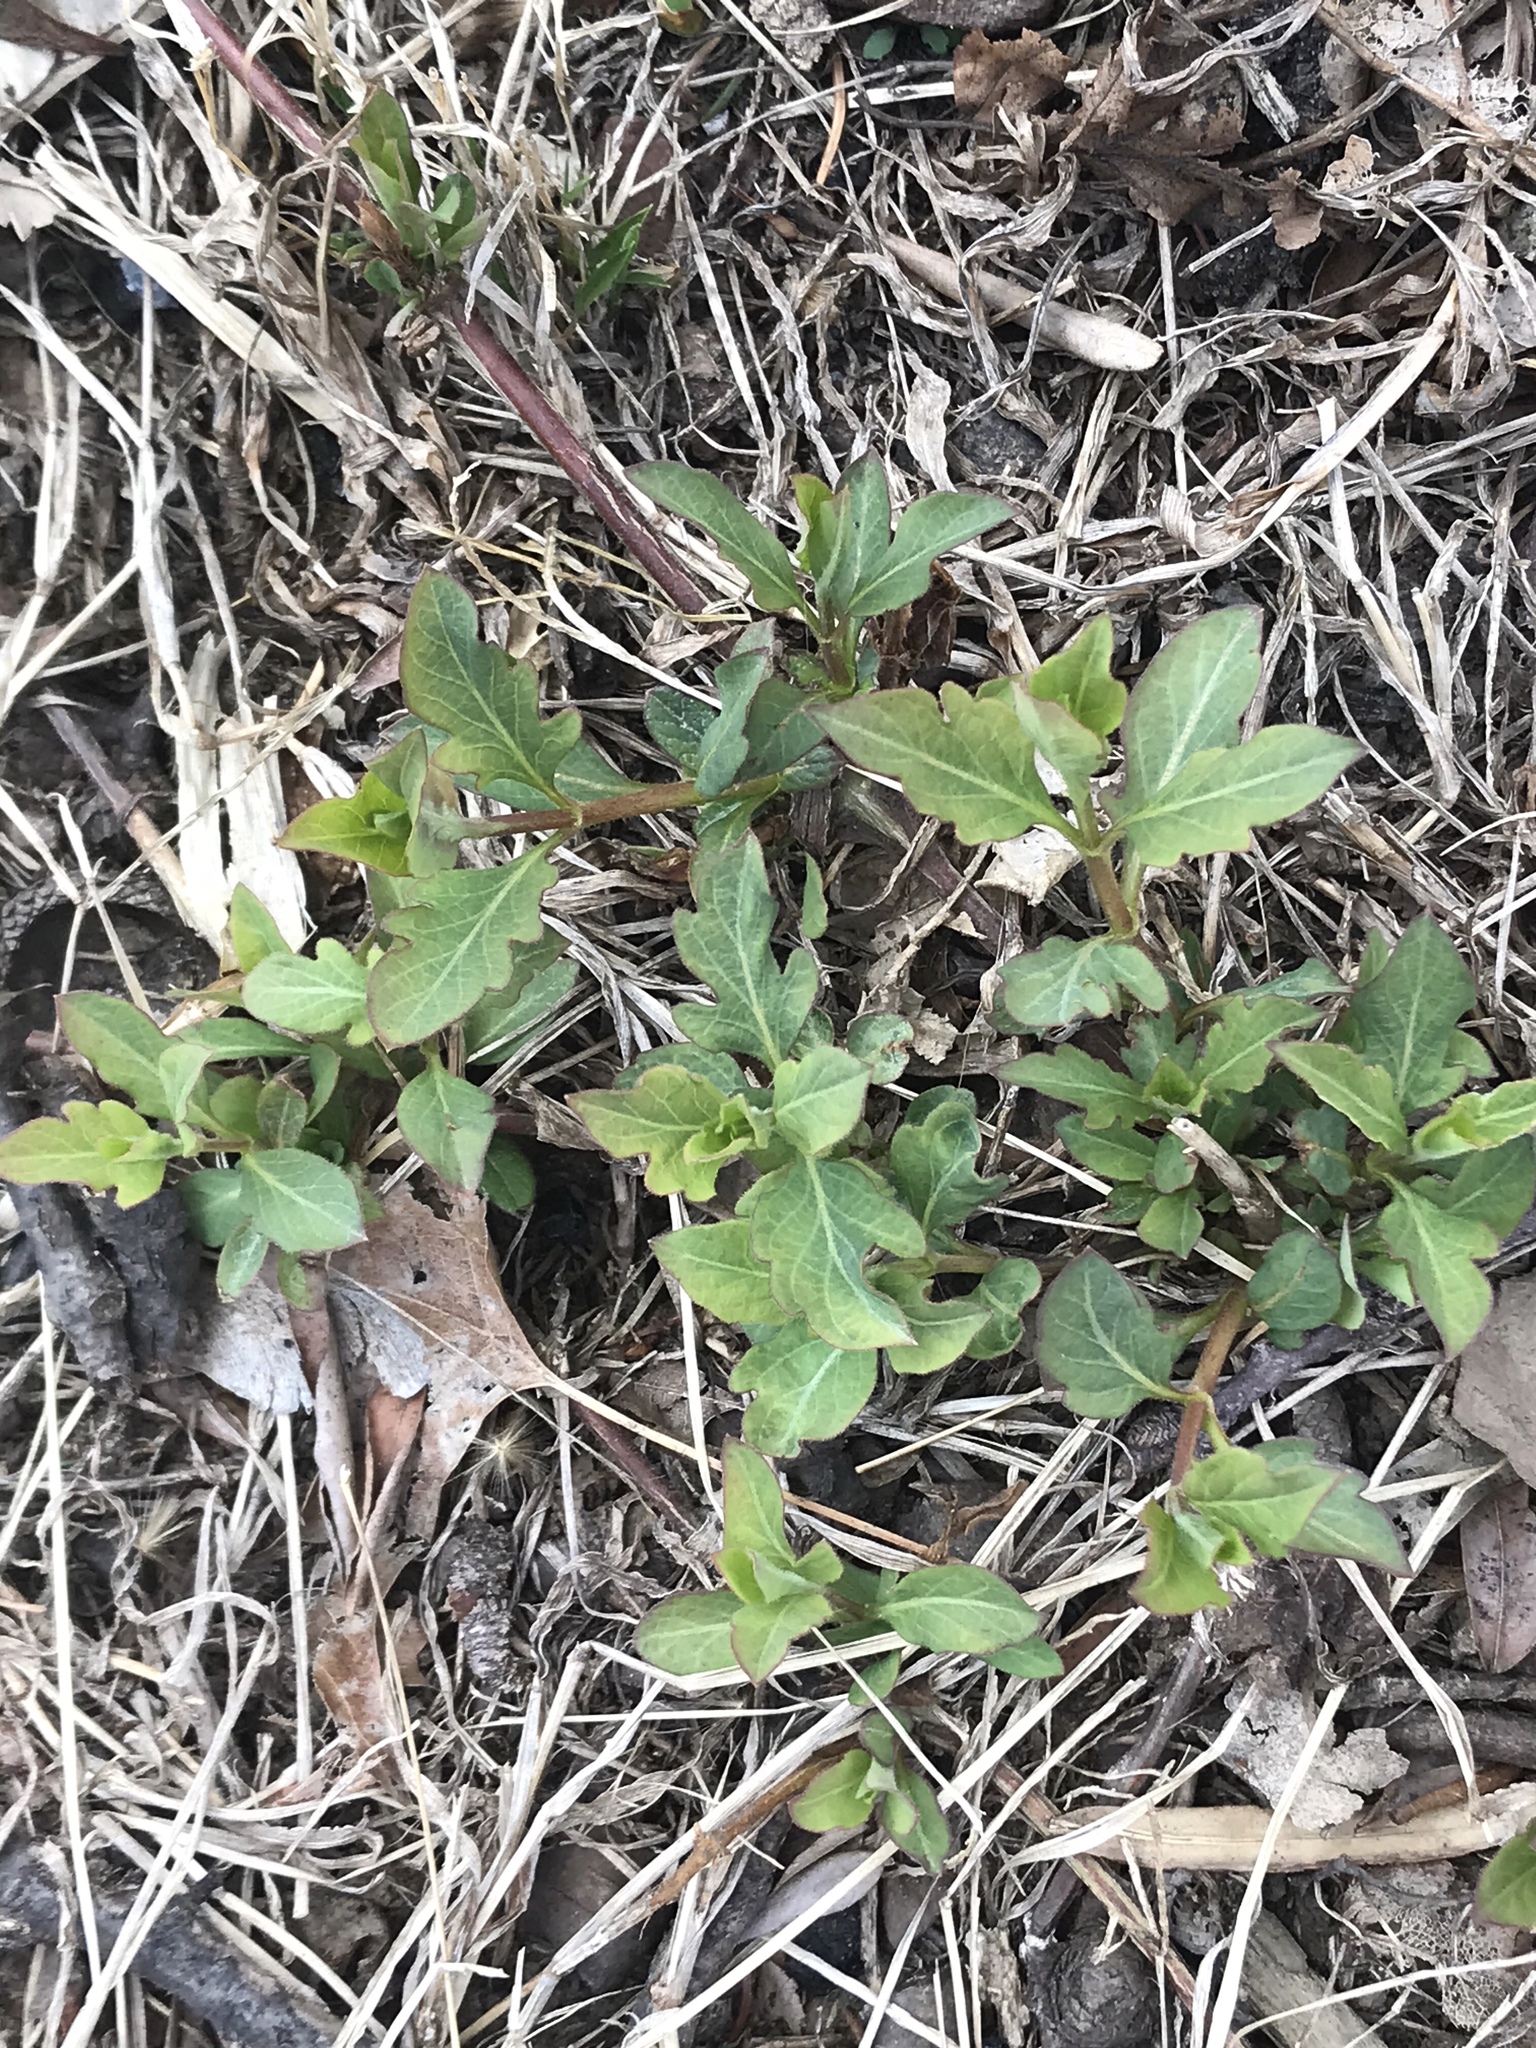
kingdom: Plantae
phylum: Tracheophyta
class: Magnoliopsida
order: Dipsacales
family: Caprifoliaceae
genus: Lonicera
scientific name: Lonicera japonica
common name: Japanese honeysuckle
